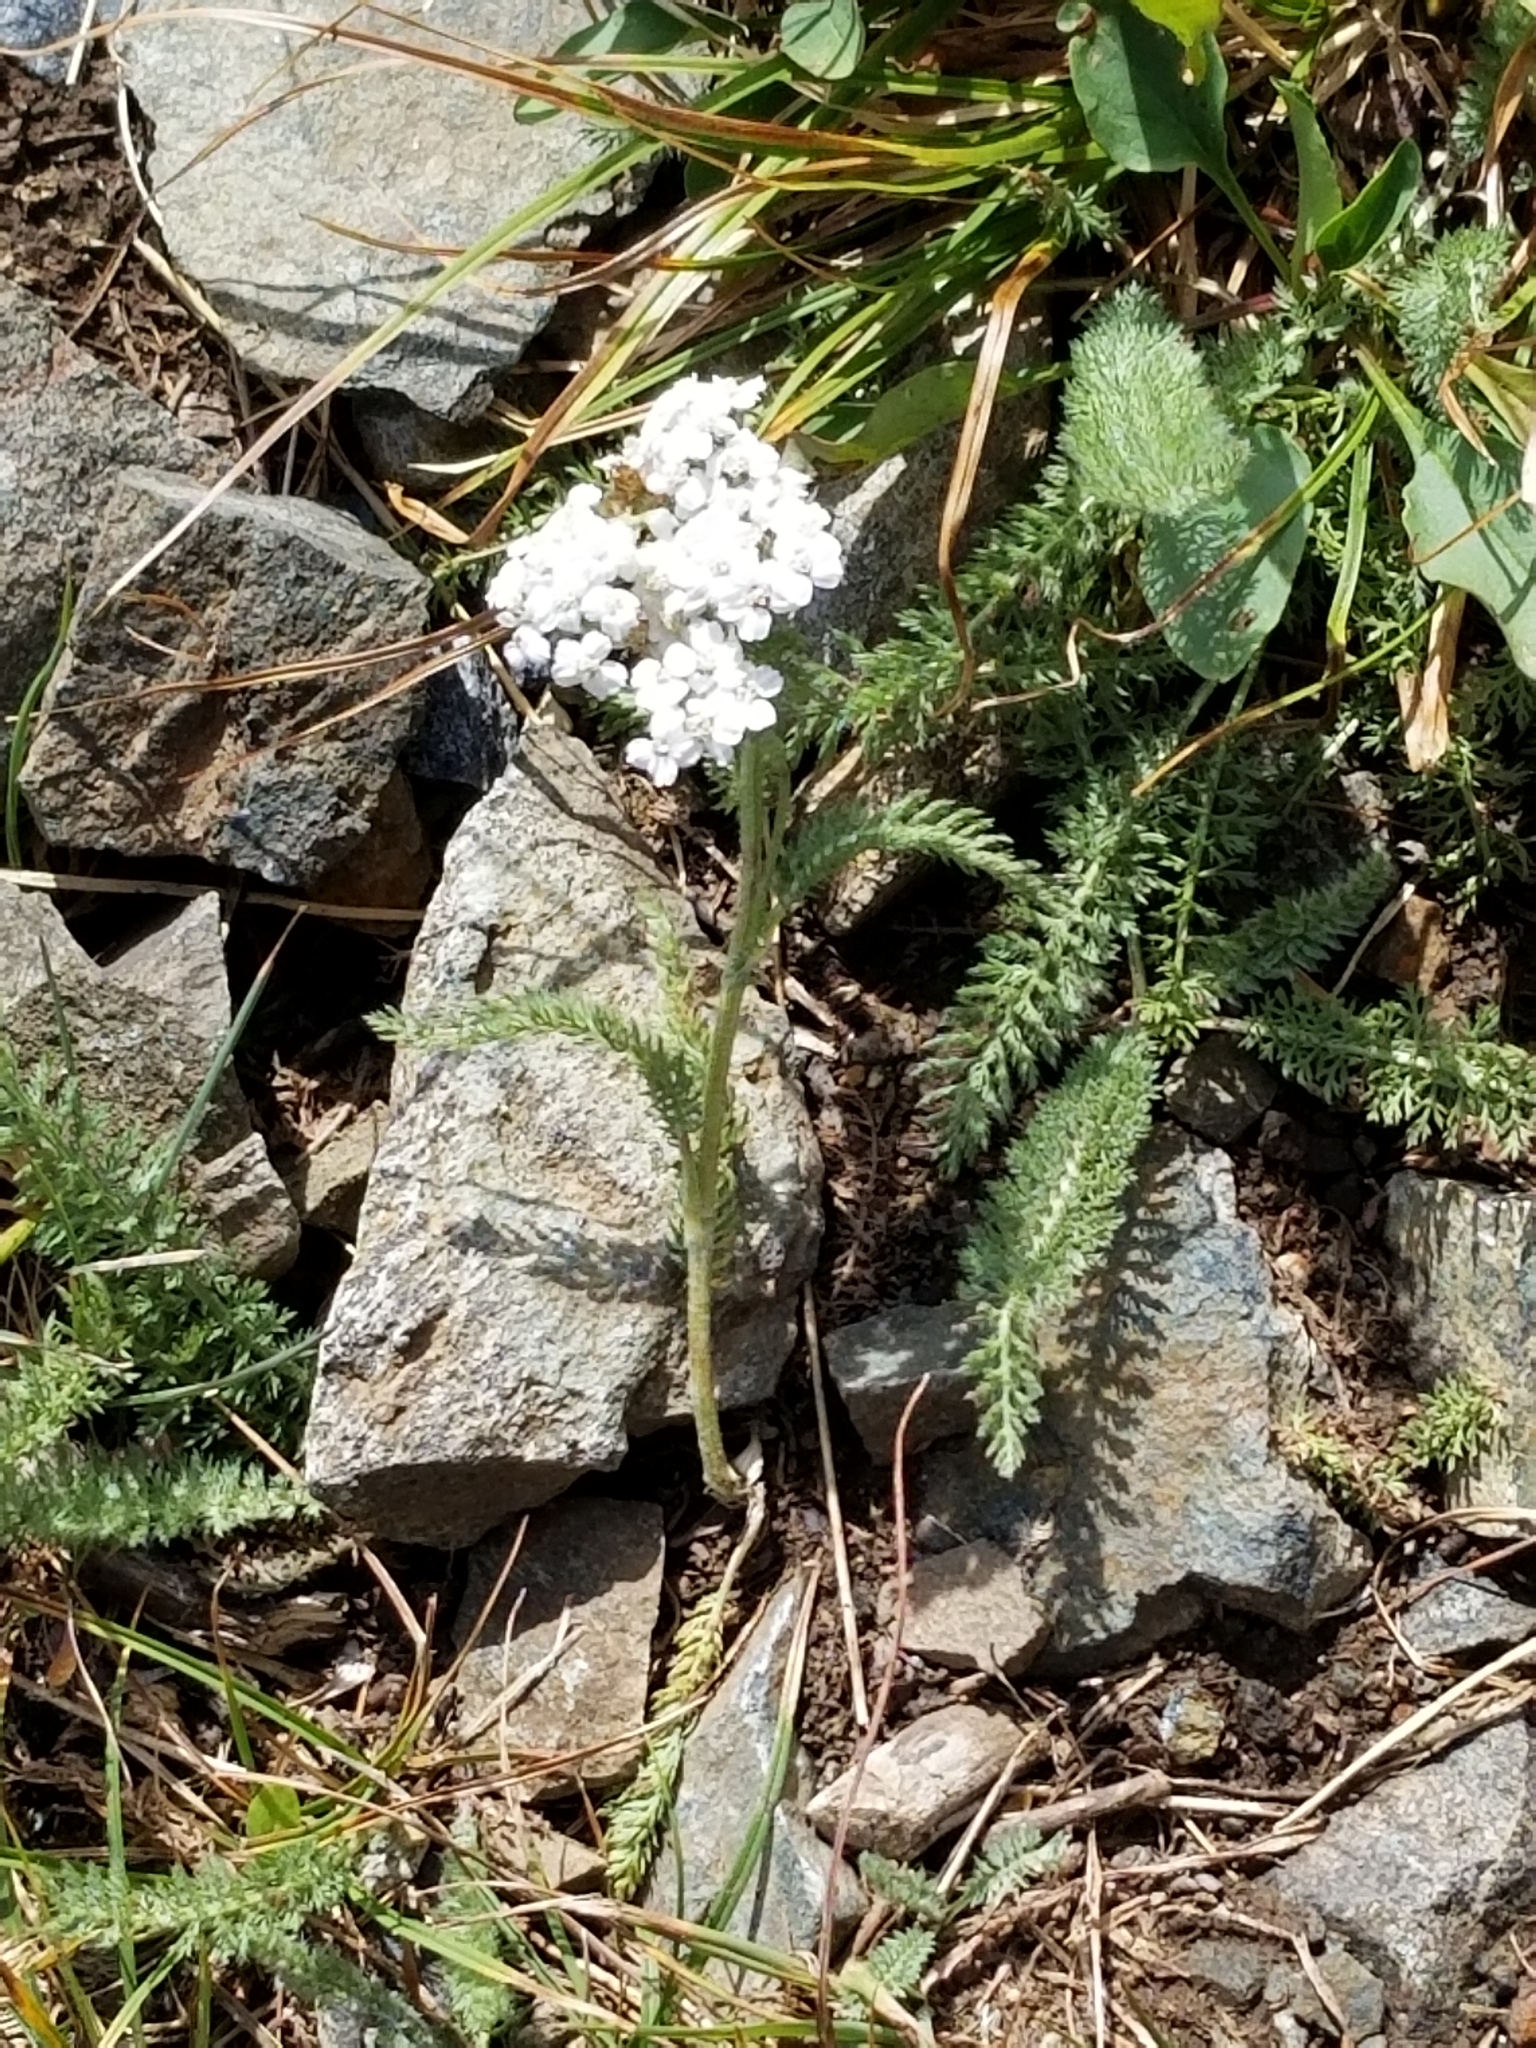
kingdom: Plantae
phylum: Tracheophyta
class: Magnoliopsida
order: Asterales
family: Asteraceae
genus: Achillea
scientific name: Achillea millefolium
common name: Yarrow
